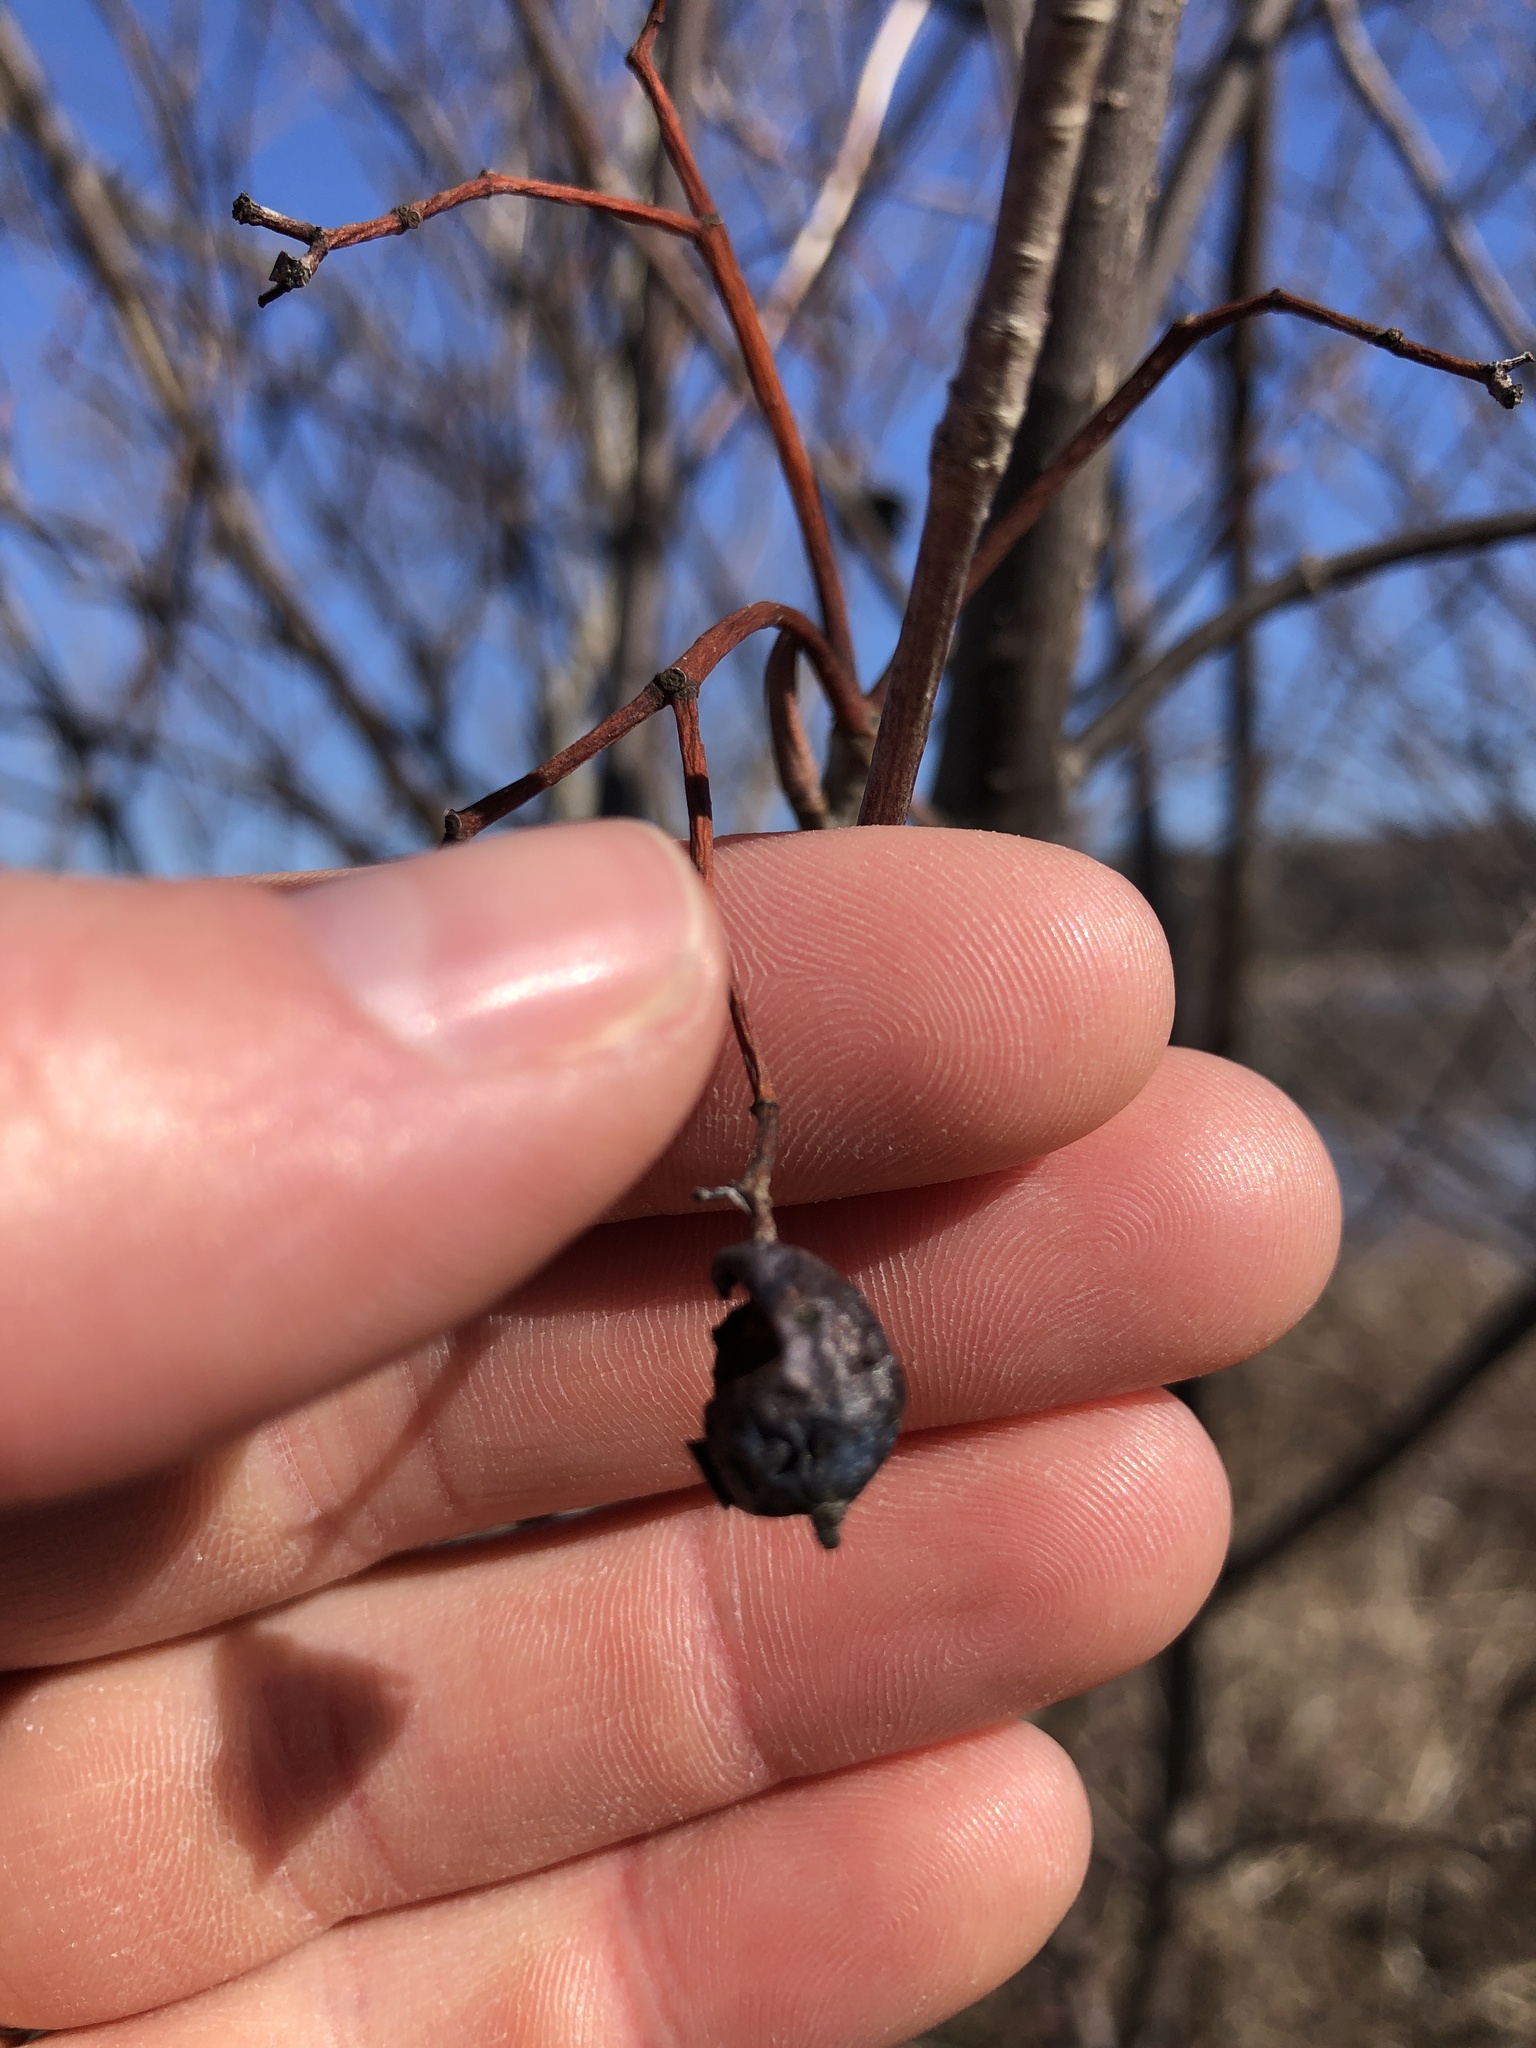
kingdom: Plantae
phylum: Tracheophyta
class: Magnoliopsida
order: Dipsacales
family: Viburnaceae
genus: Viburnum
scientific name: Viburnum lentago
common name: Black haw
